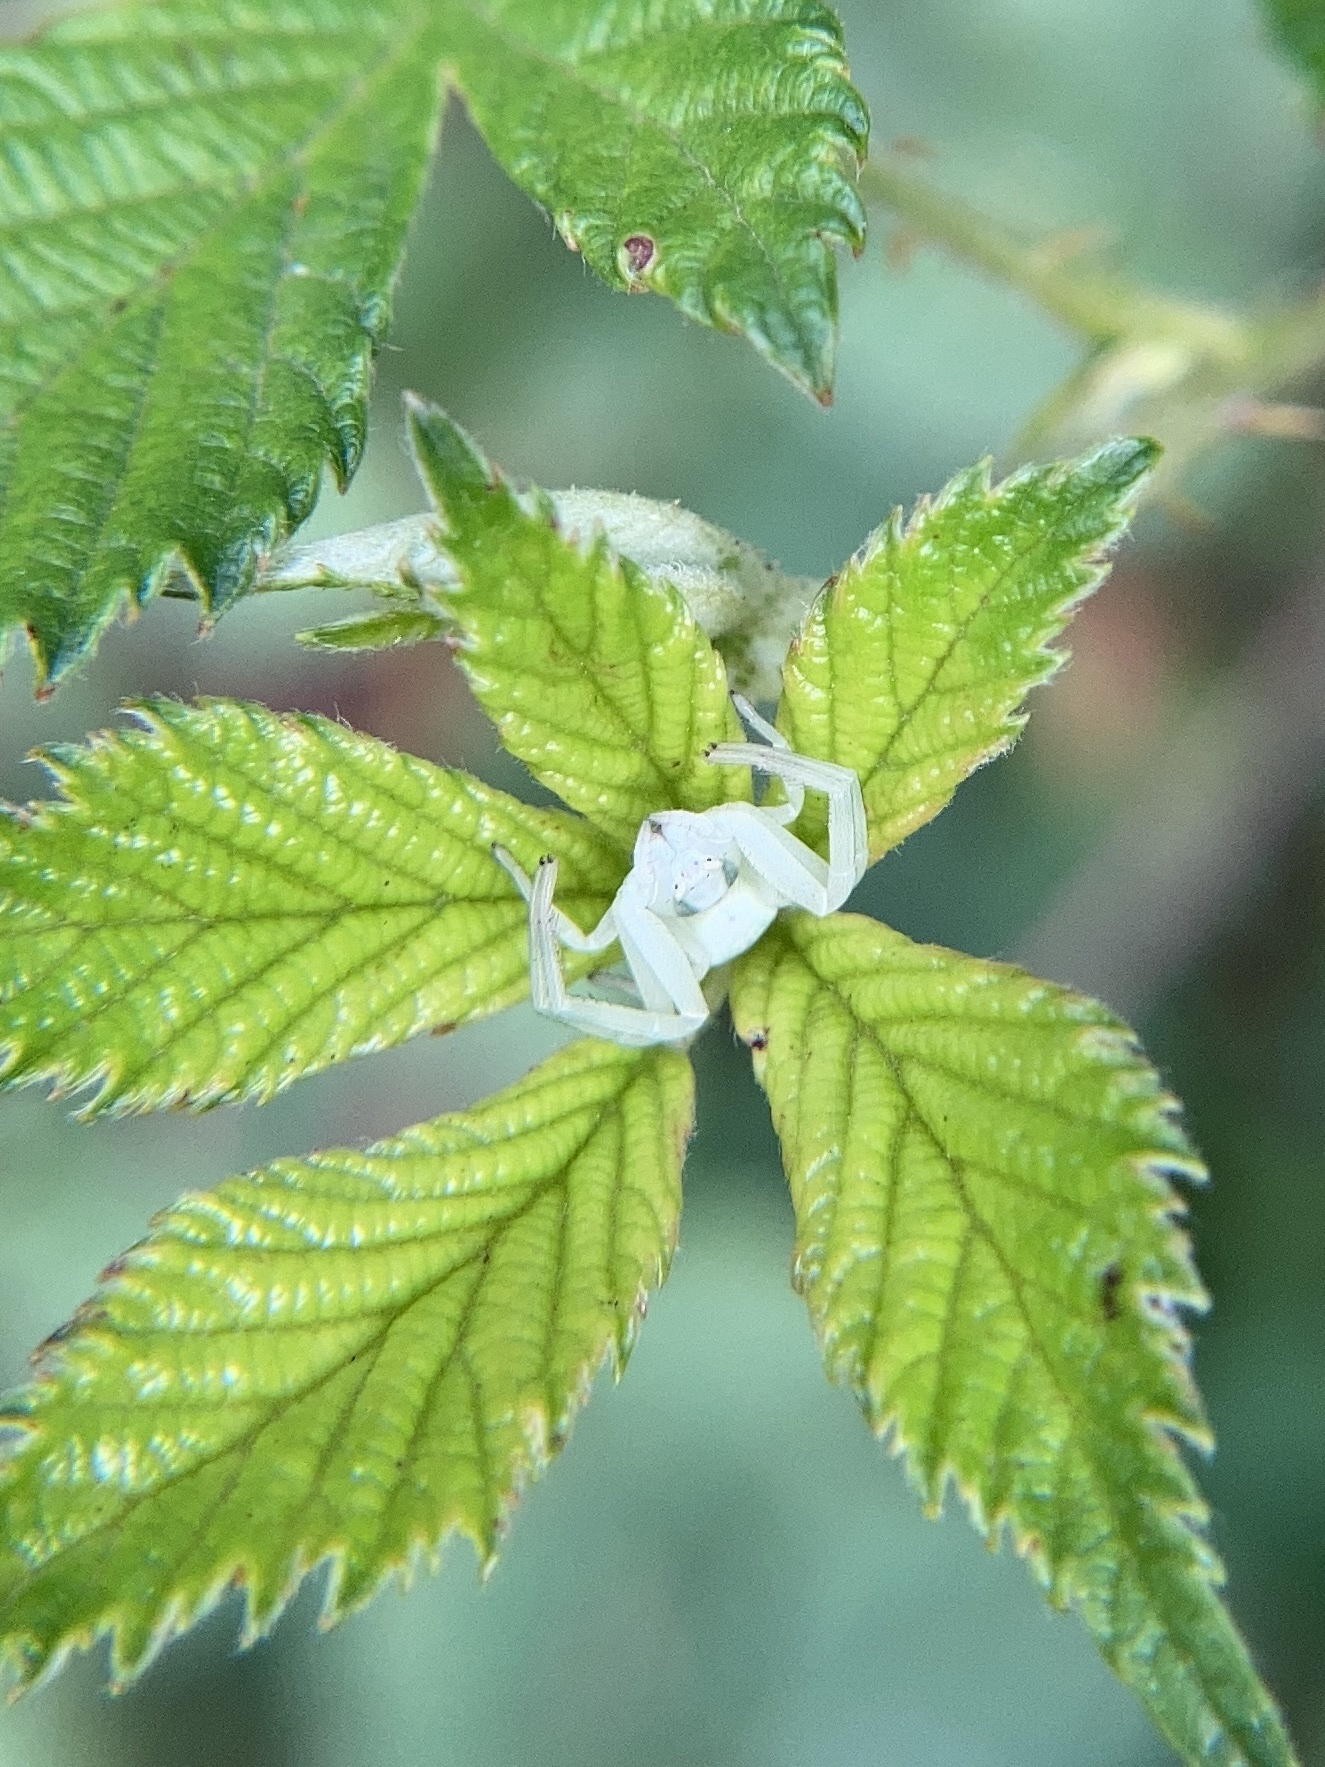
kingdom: Animalia
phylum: Arthropoda
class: Arachnida
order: Araneae
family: Thomisidae
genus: Misumena
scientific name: Misumena vatia
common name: Goldenrod crab spider
